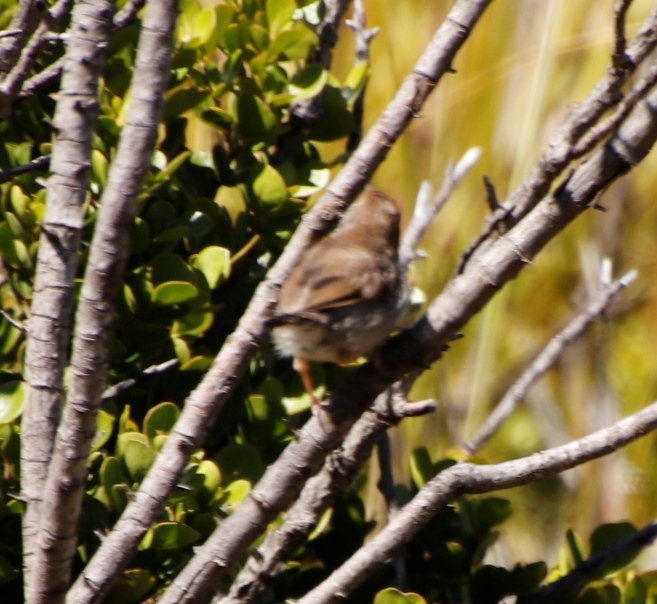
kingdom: Animalia
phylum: Chordata
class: Aves
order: Passeriformes
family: Cisticolidae
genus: Cisticola
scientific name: Cisticola fulvicapilla
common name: Neddicky
